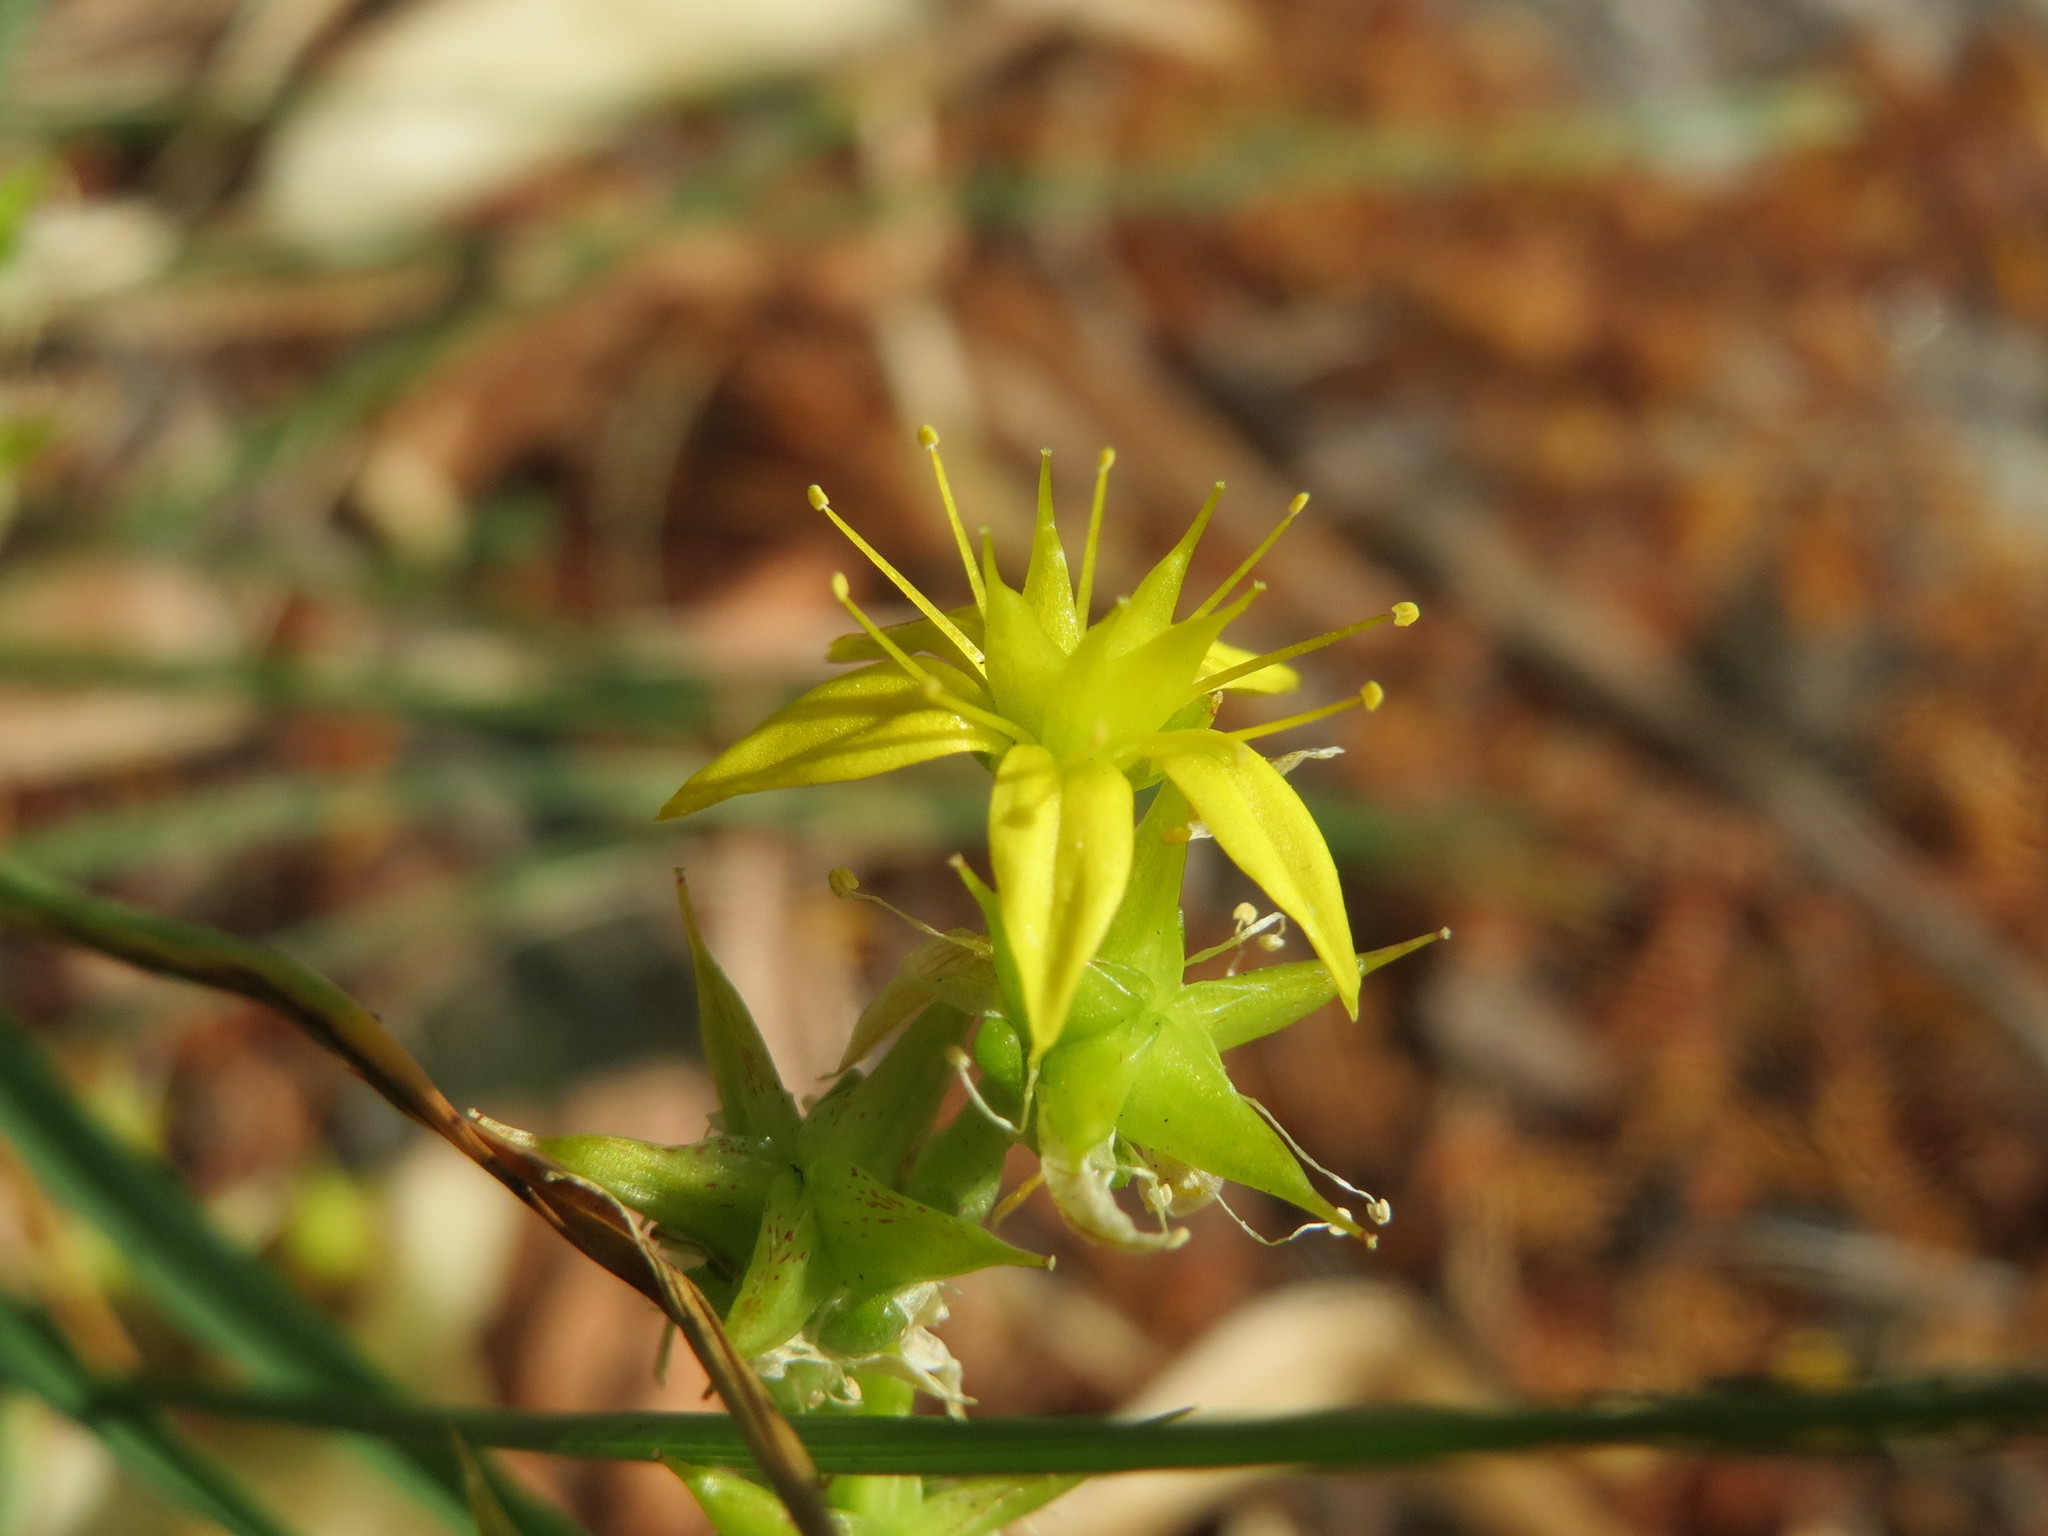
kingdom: Plantae
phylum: Tracheophyta
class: Magnoliopsida
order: Saxifragales
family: Crassulaceae
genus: Sedum
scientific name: Sedum acre
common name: Biting stonecrop
